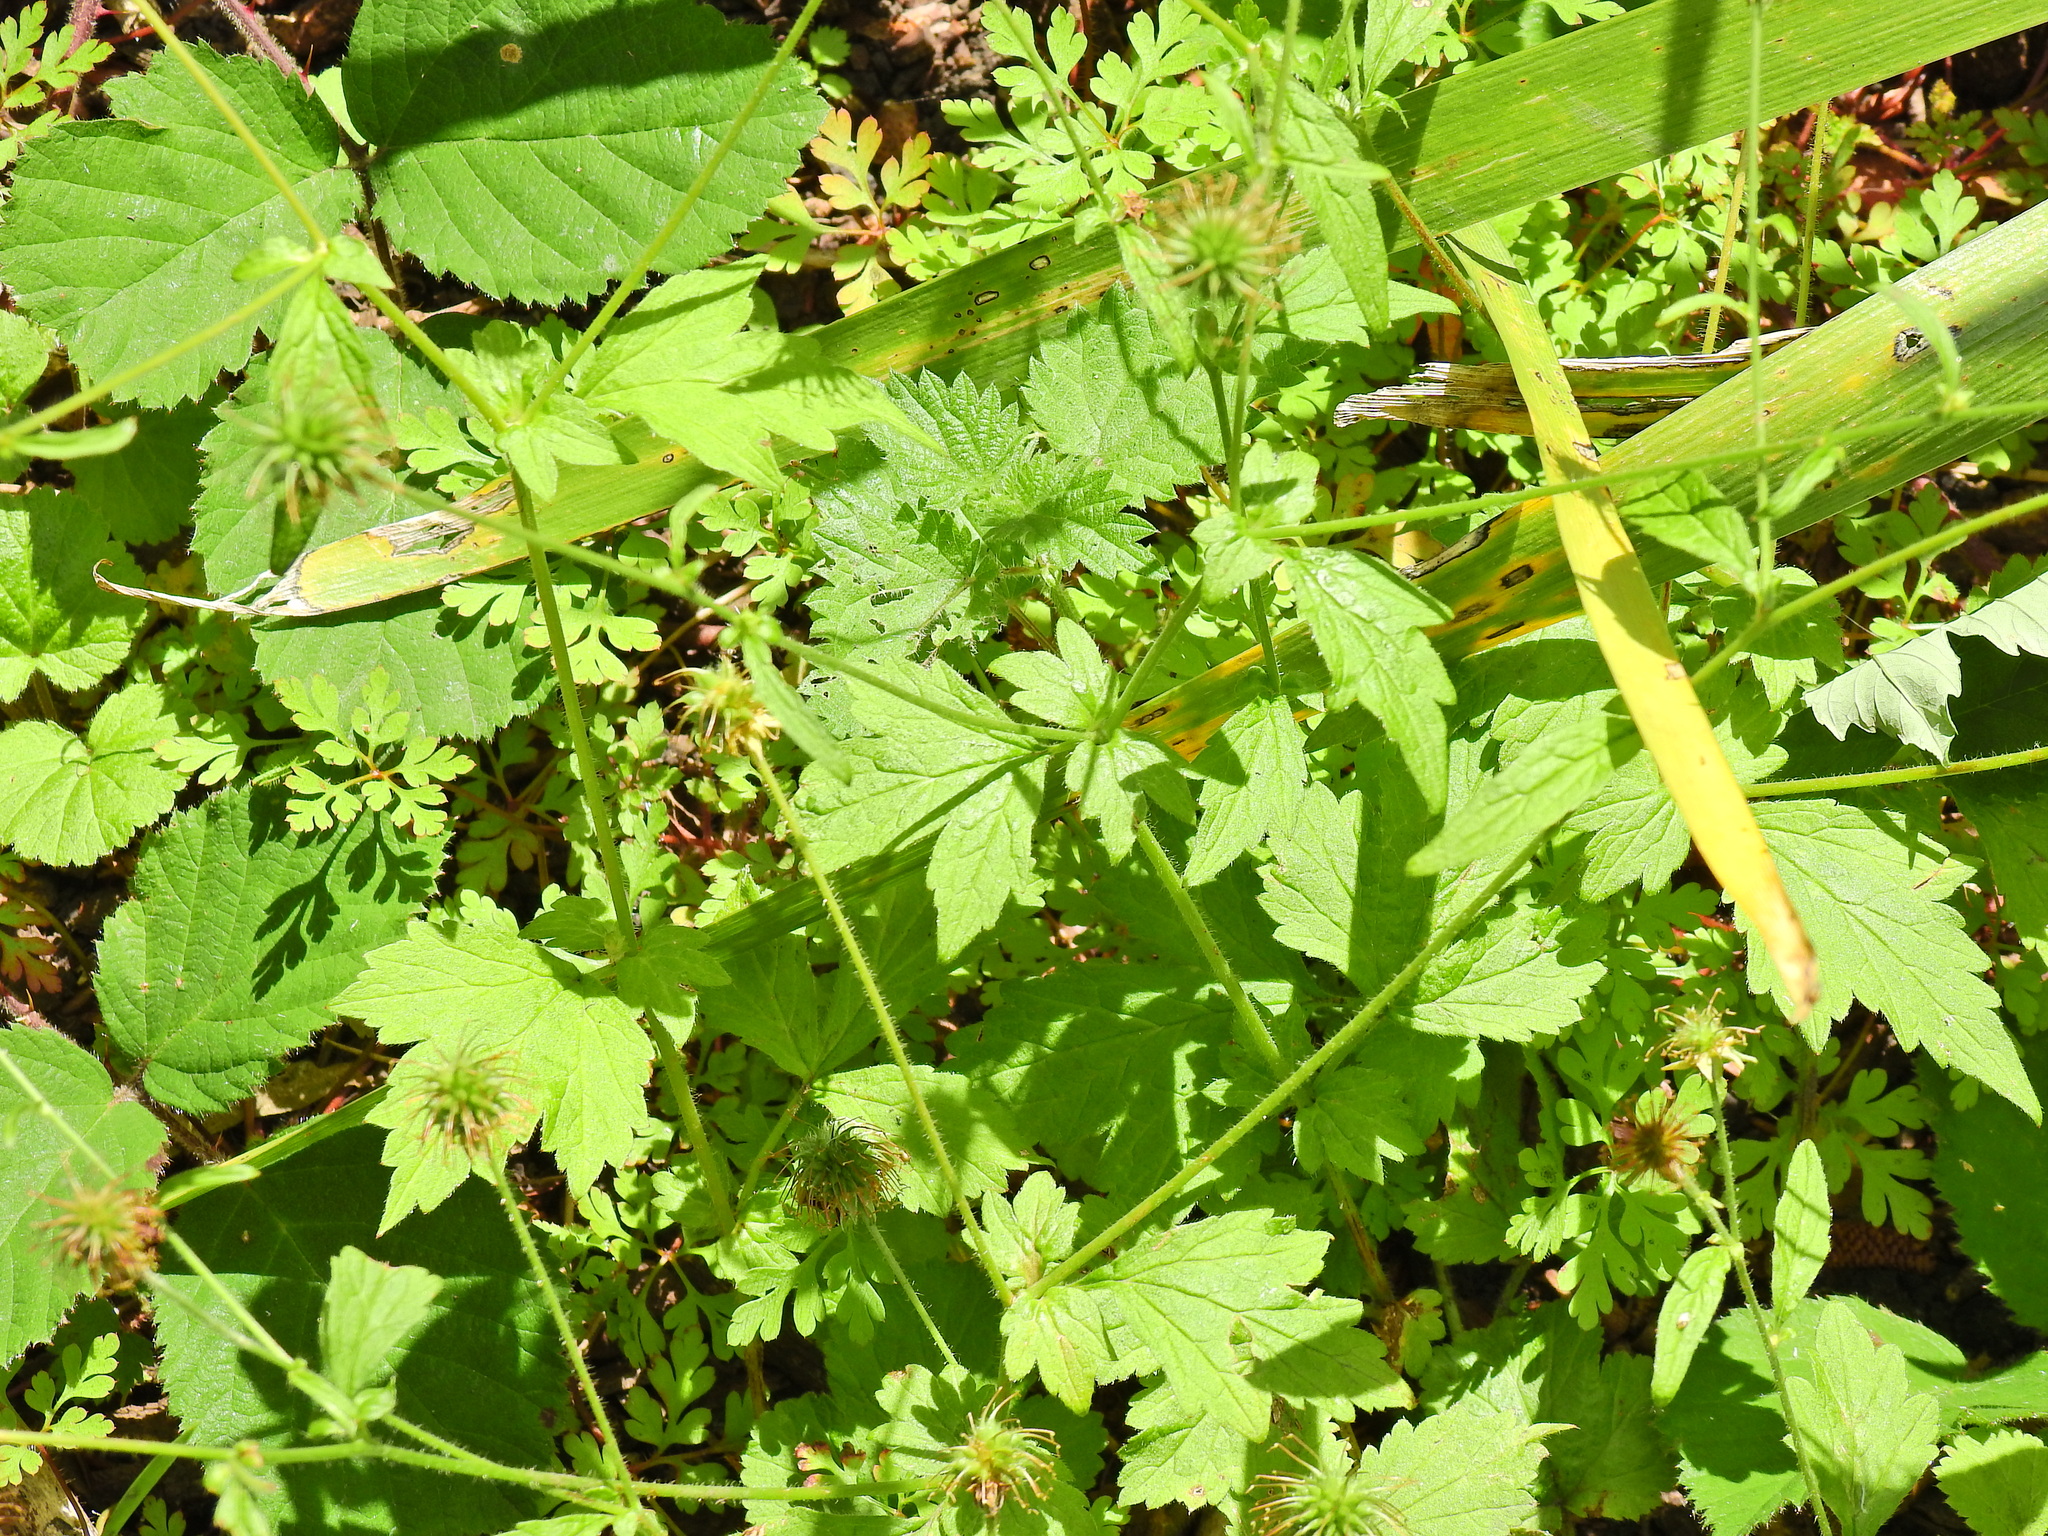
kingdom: Plantae
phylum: Tracheophyta
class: Magnoliopsida
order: Rosales
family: Rosaceae
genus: Geum
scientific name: Geum urbanum
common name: Wood avens
